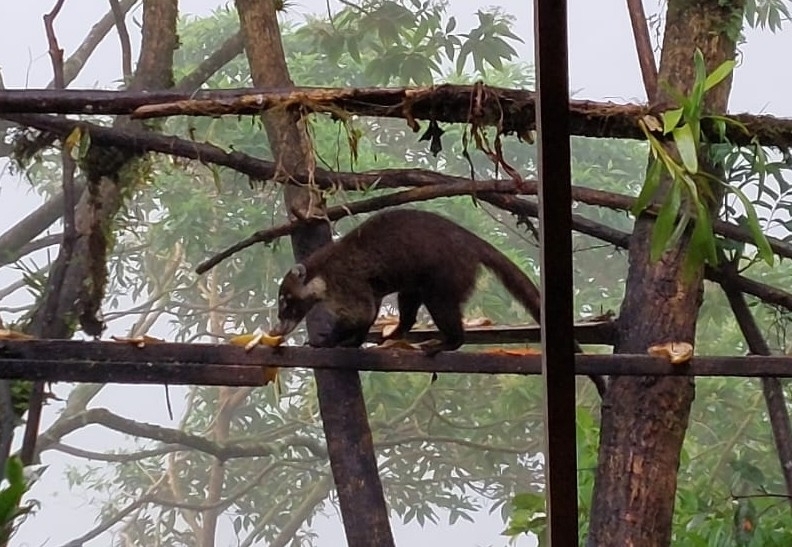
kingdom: Animalia
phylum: Chordata
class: Mammalia
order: Carnivora
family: Procyonidae
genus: Nasua
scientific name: Nasua narica
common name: White-nosed coati
